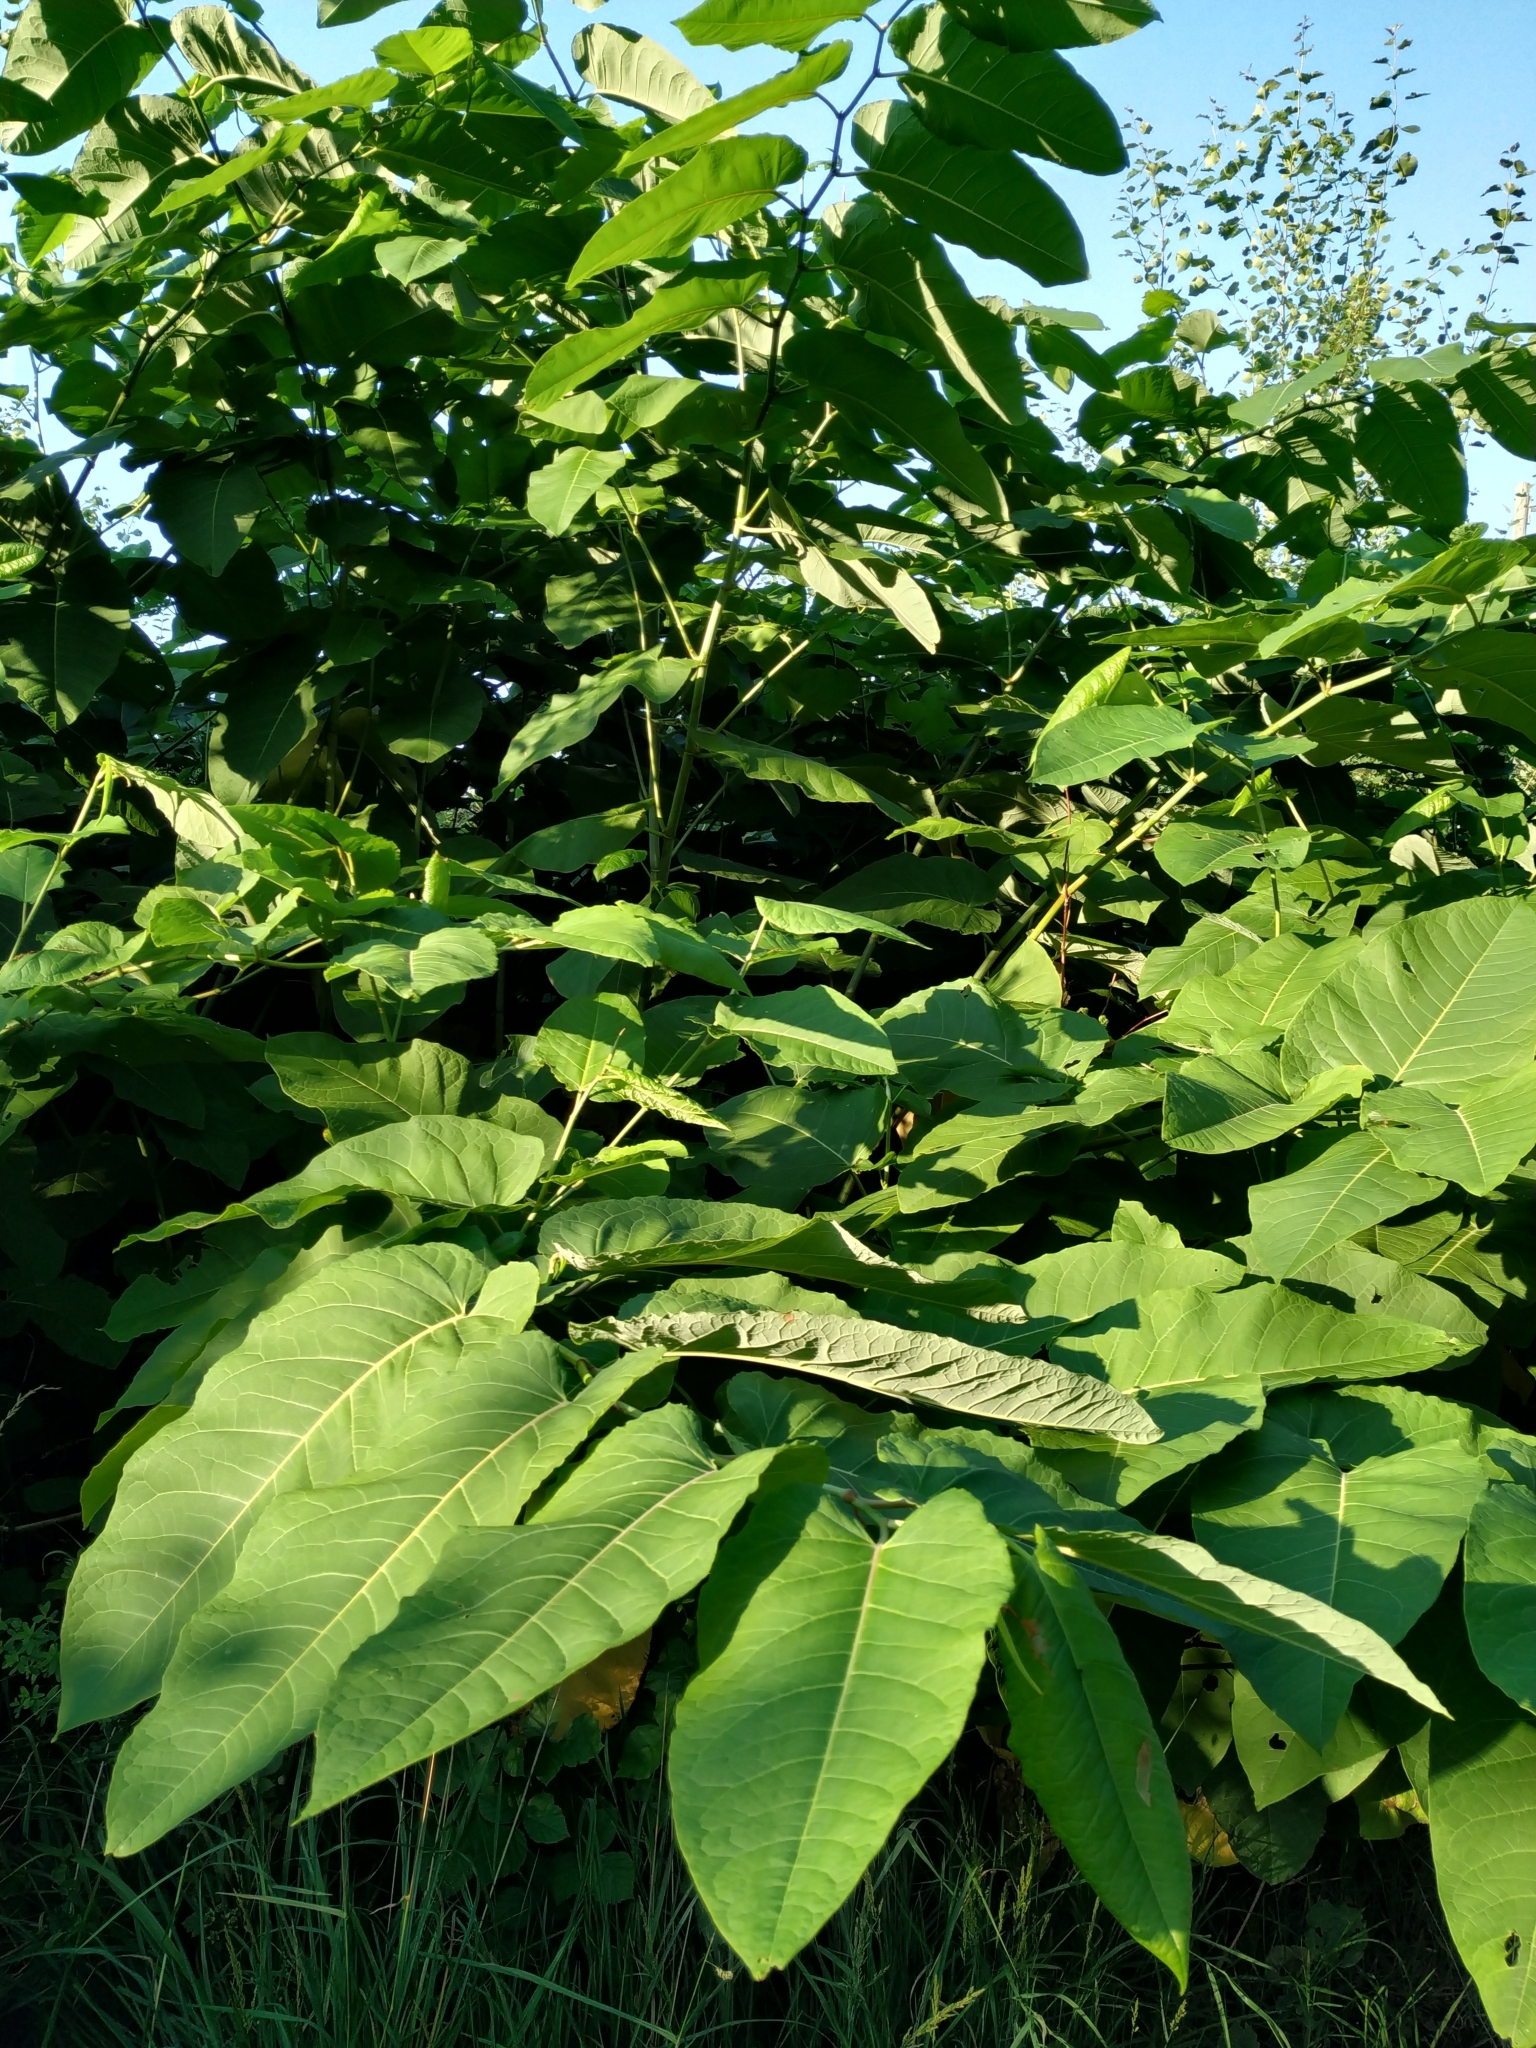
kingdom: Plantae
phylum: Tracheophyta
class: Magnoliopsida
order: Caryophyllales
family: Polygonaceae
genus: Reynoutria
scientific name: Reynoutria sachalinensis
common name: Giant knotweed
